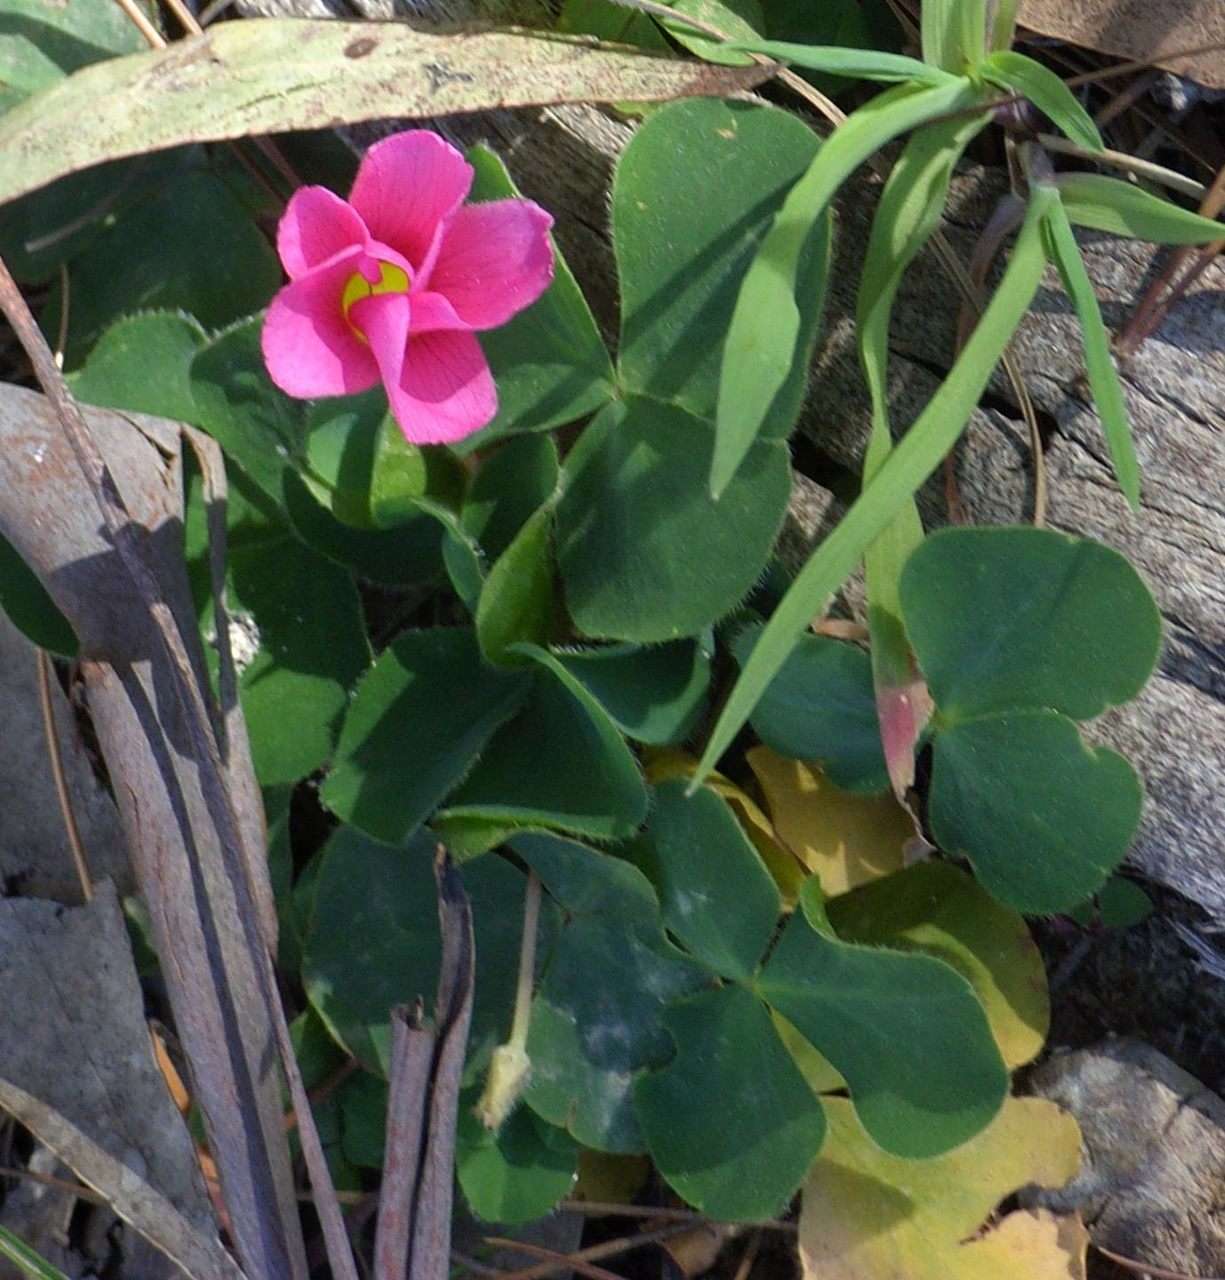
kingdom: Plantae
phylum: Tracheophyta
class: Magnoliopsida
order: Oxalidales
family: Oxalidaceae
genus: Oxalis
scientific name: Oxalis purpurea
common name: Purple woodsorrel
